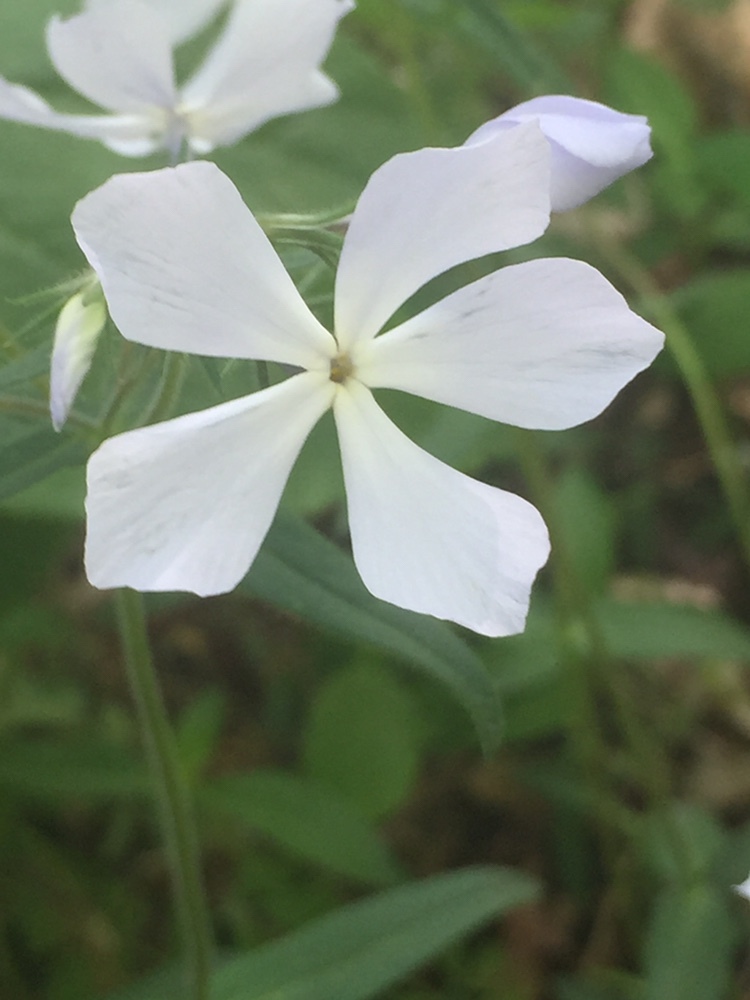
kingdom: Plantae
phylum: Tracheophyta
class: Magnoliopsida
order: Ericales
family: Polemoniaceae
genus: Phlox
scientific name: Phlox divaricata
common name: Blue phlox
